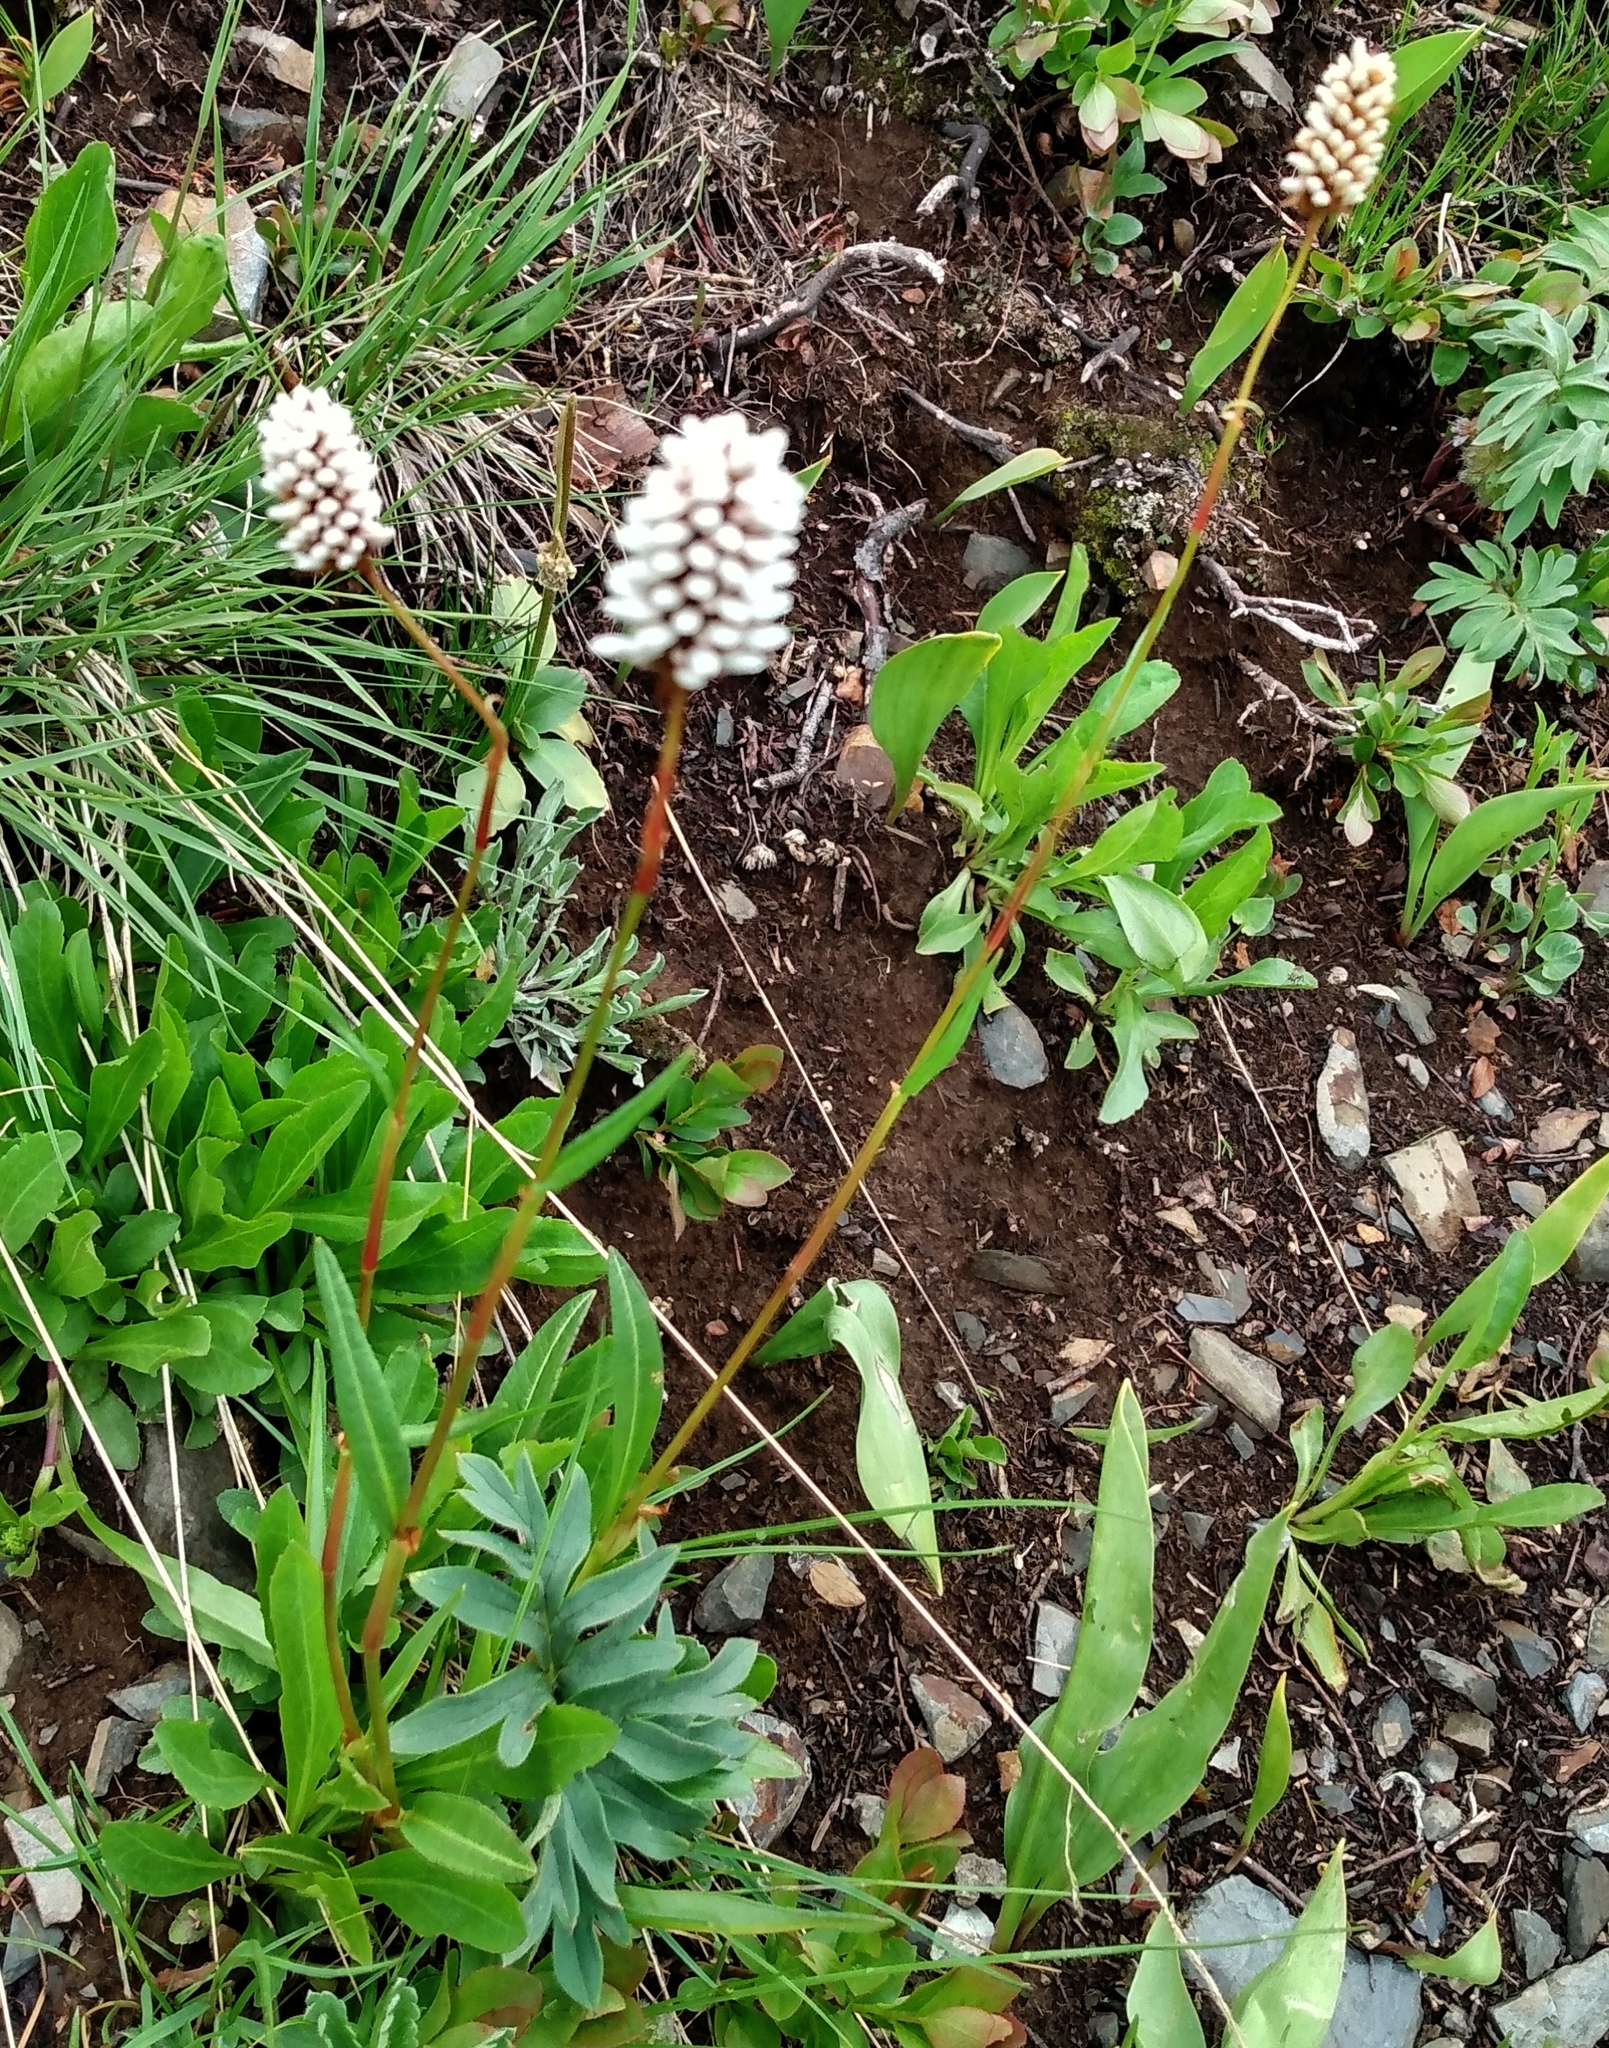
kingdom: Plantae
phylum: Tracheophyta
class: Magnoliopsida
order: Caryophyllales
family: Polygonaceae
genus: Bistorta
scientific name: Bistorta bistortoides
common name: American bistort
